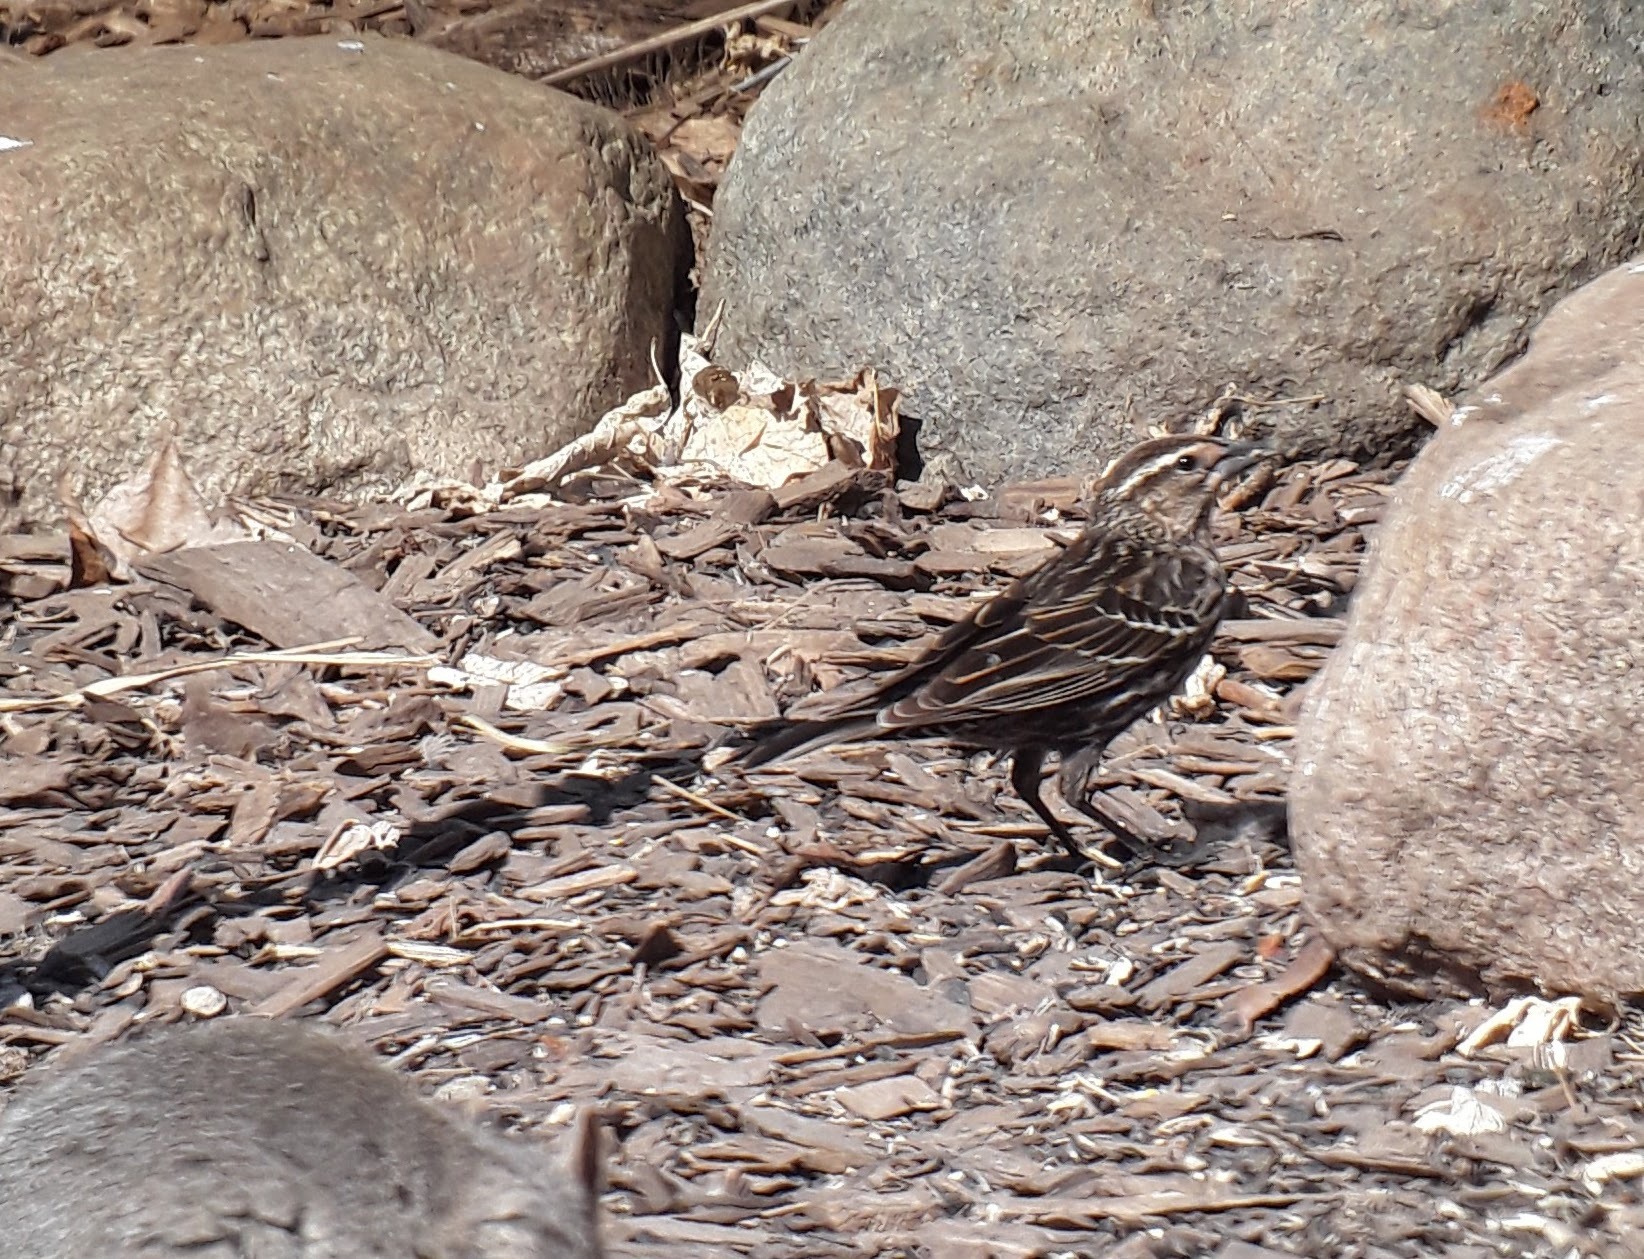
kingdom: Animalia
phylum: Chordata
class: Aves
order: Passeriformes
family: Icteridae
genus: Agelaius
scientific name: Agelaius phoeniceus
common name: Red-winged blackbird
